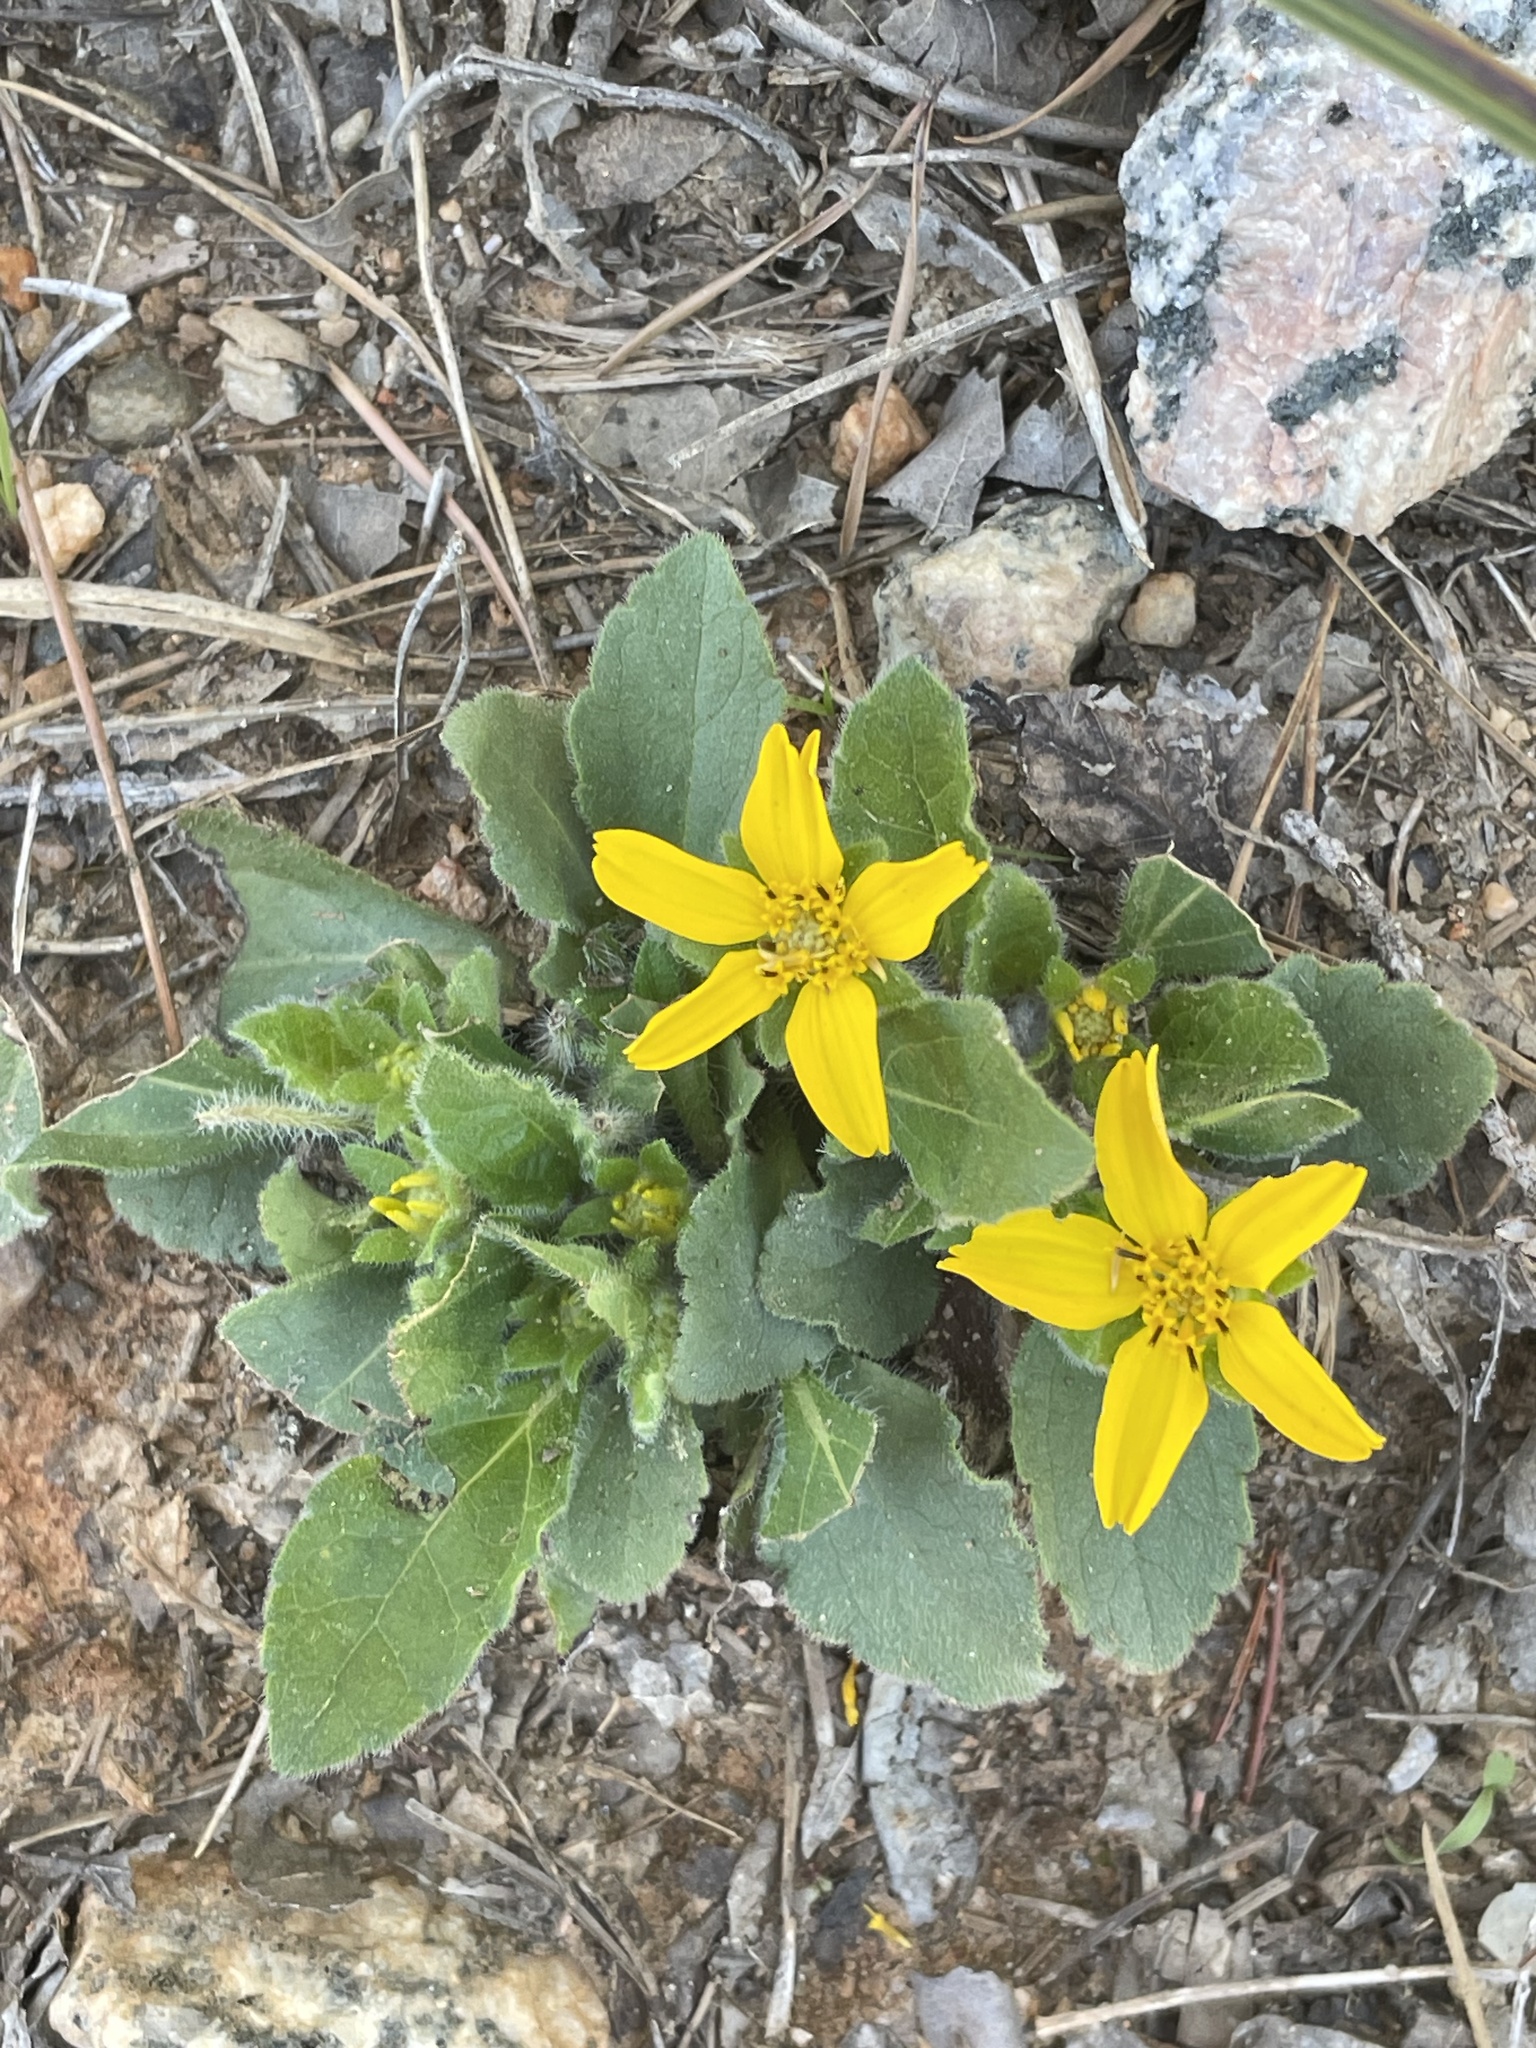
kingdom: Plantae
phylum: Tracheophyta
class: Magnoliopsida
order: Asterales
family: Asteraceae
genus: Chrysogonum
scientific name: Chrysogonum virginianum
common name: Golden-knee
